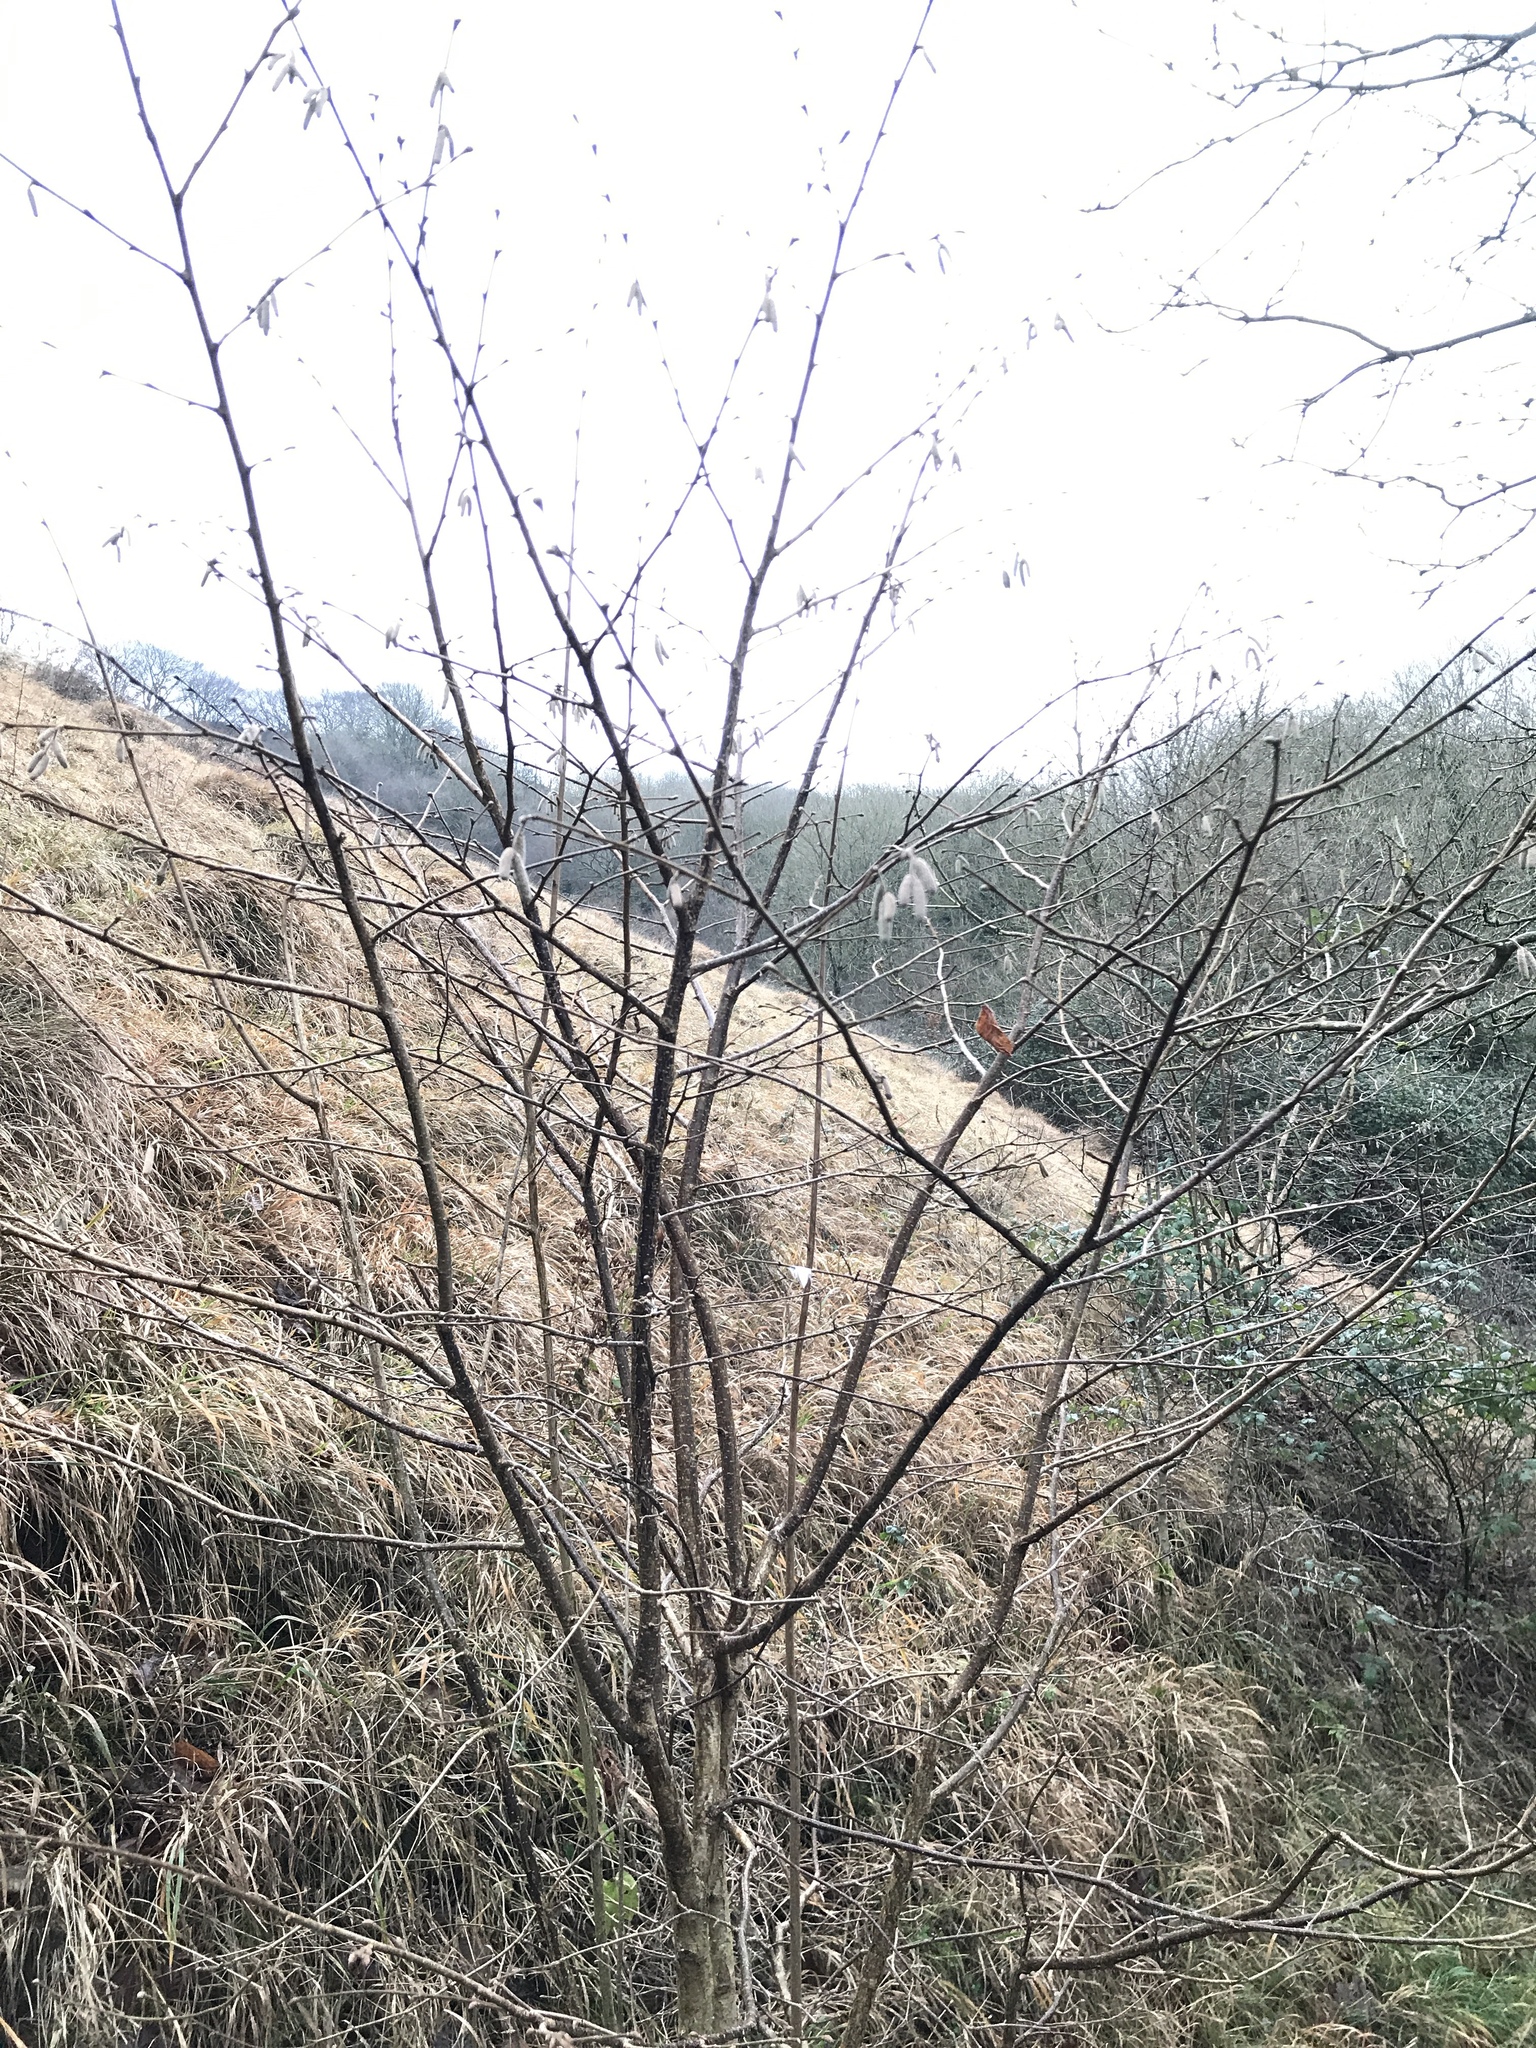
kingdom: Plantae
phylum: Tracheophyta
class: Magnoliopsida
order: Fagales
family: Betulaceae
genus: Corylus
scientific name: Corylus avellana
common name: European hazel
